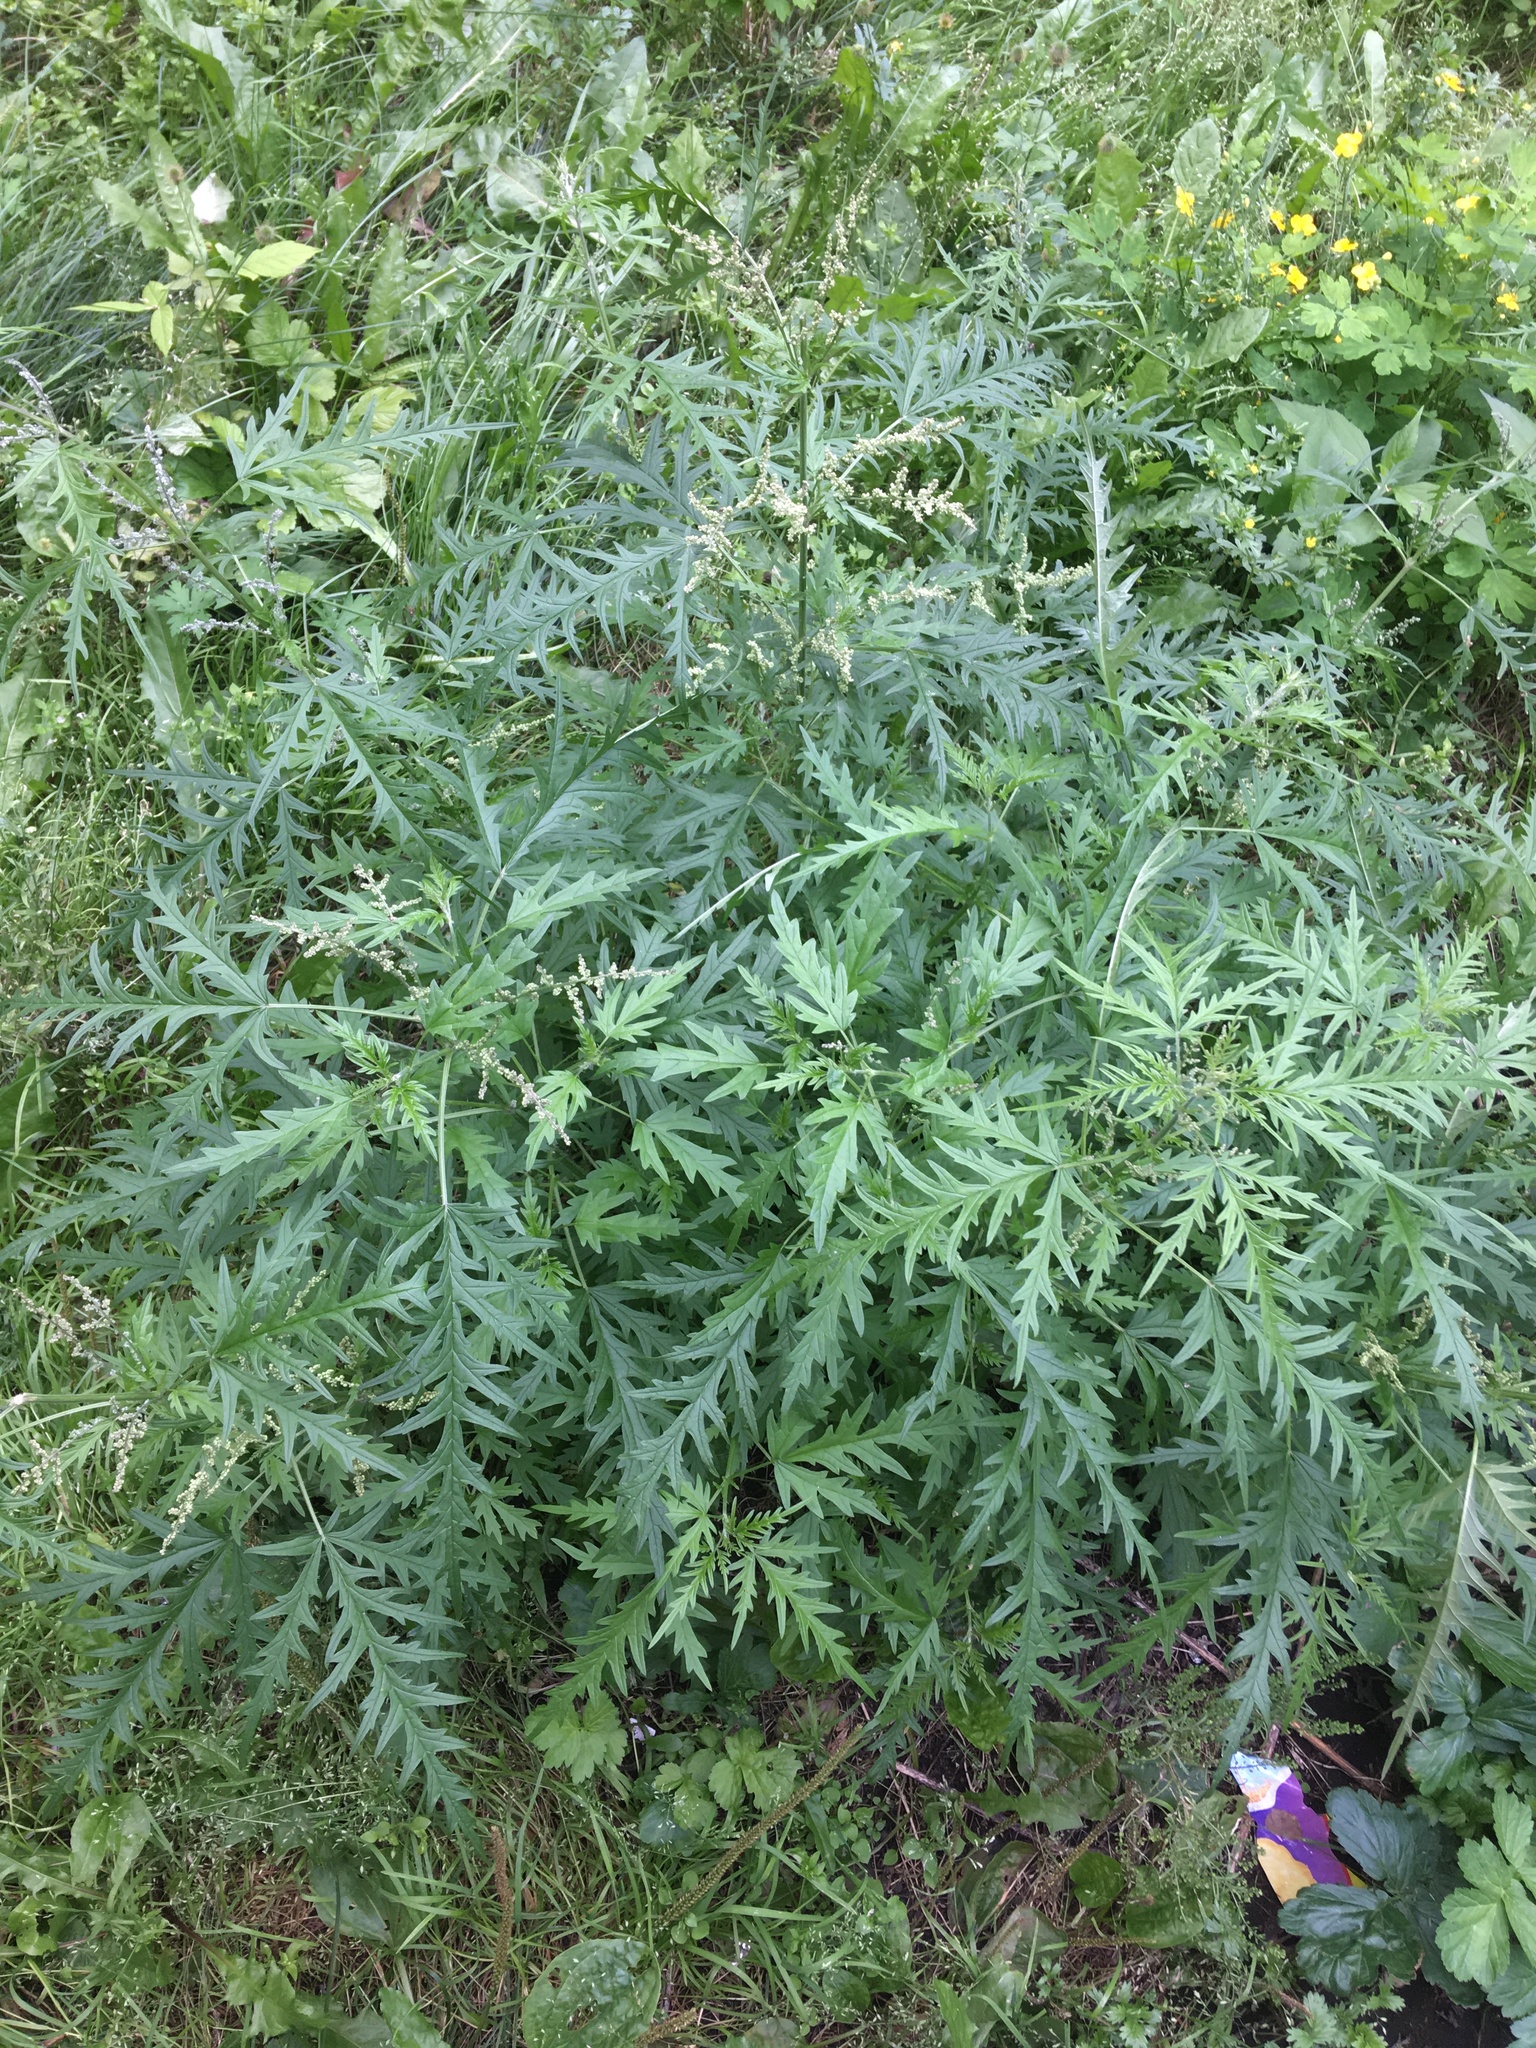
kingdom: Plantae
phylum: Tracheophyta
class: Magnoliopsida
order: Rosales
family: Urticaceae
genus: Urtica
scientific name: Urtica cannabina
